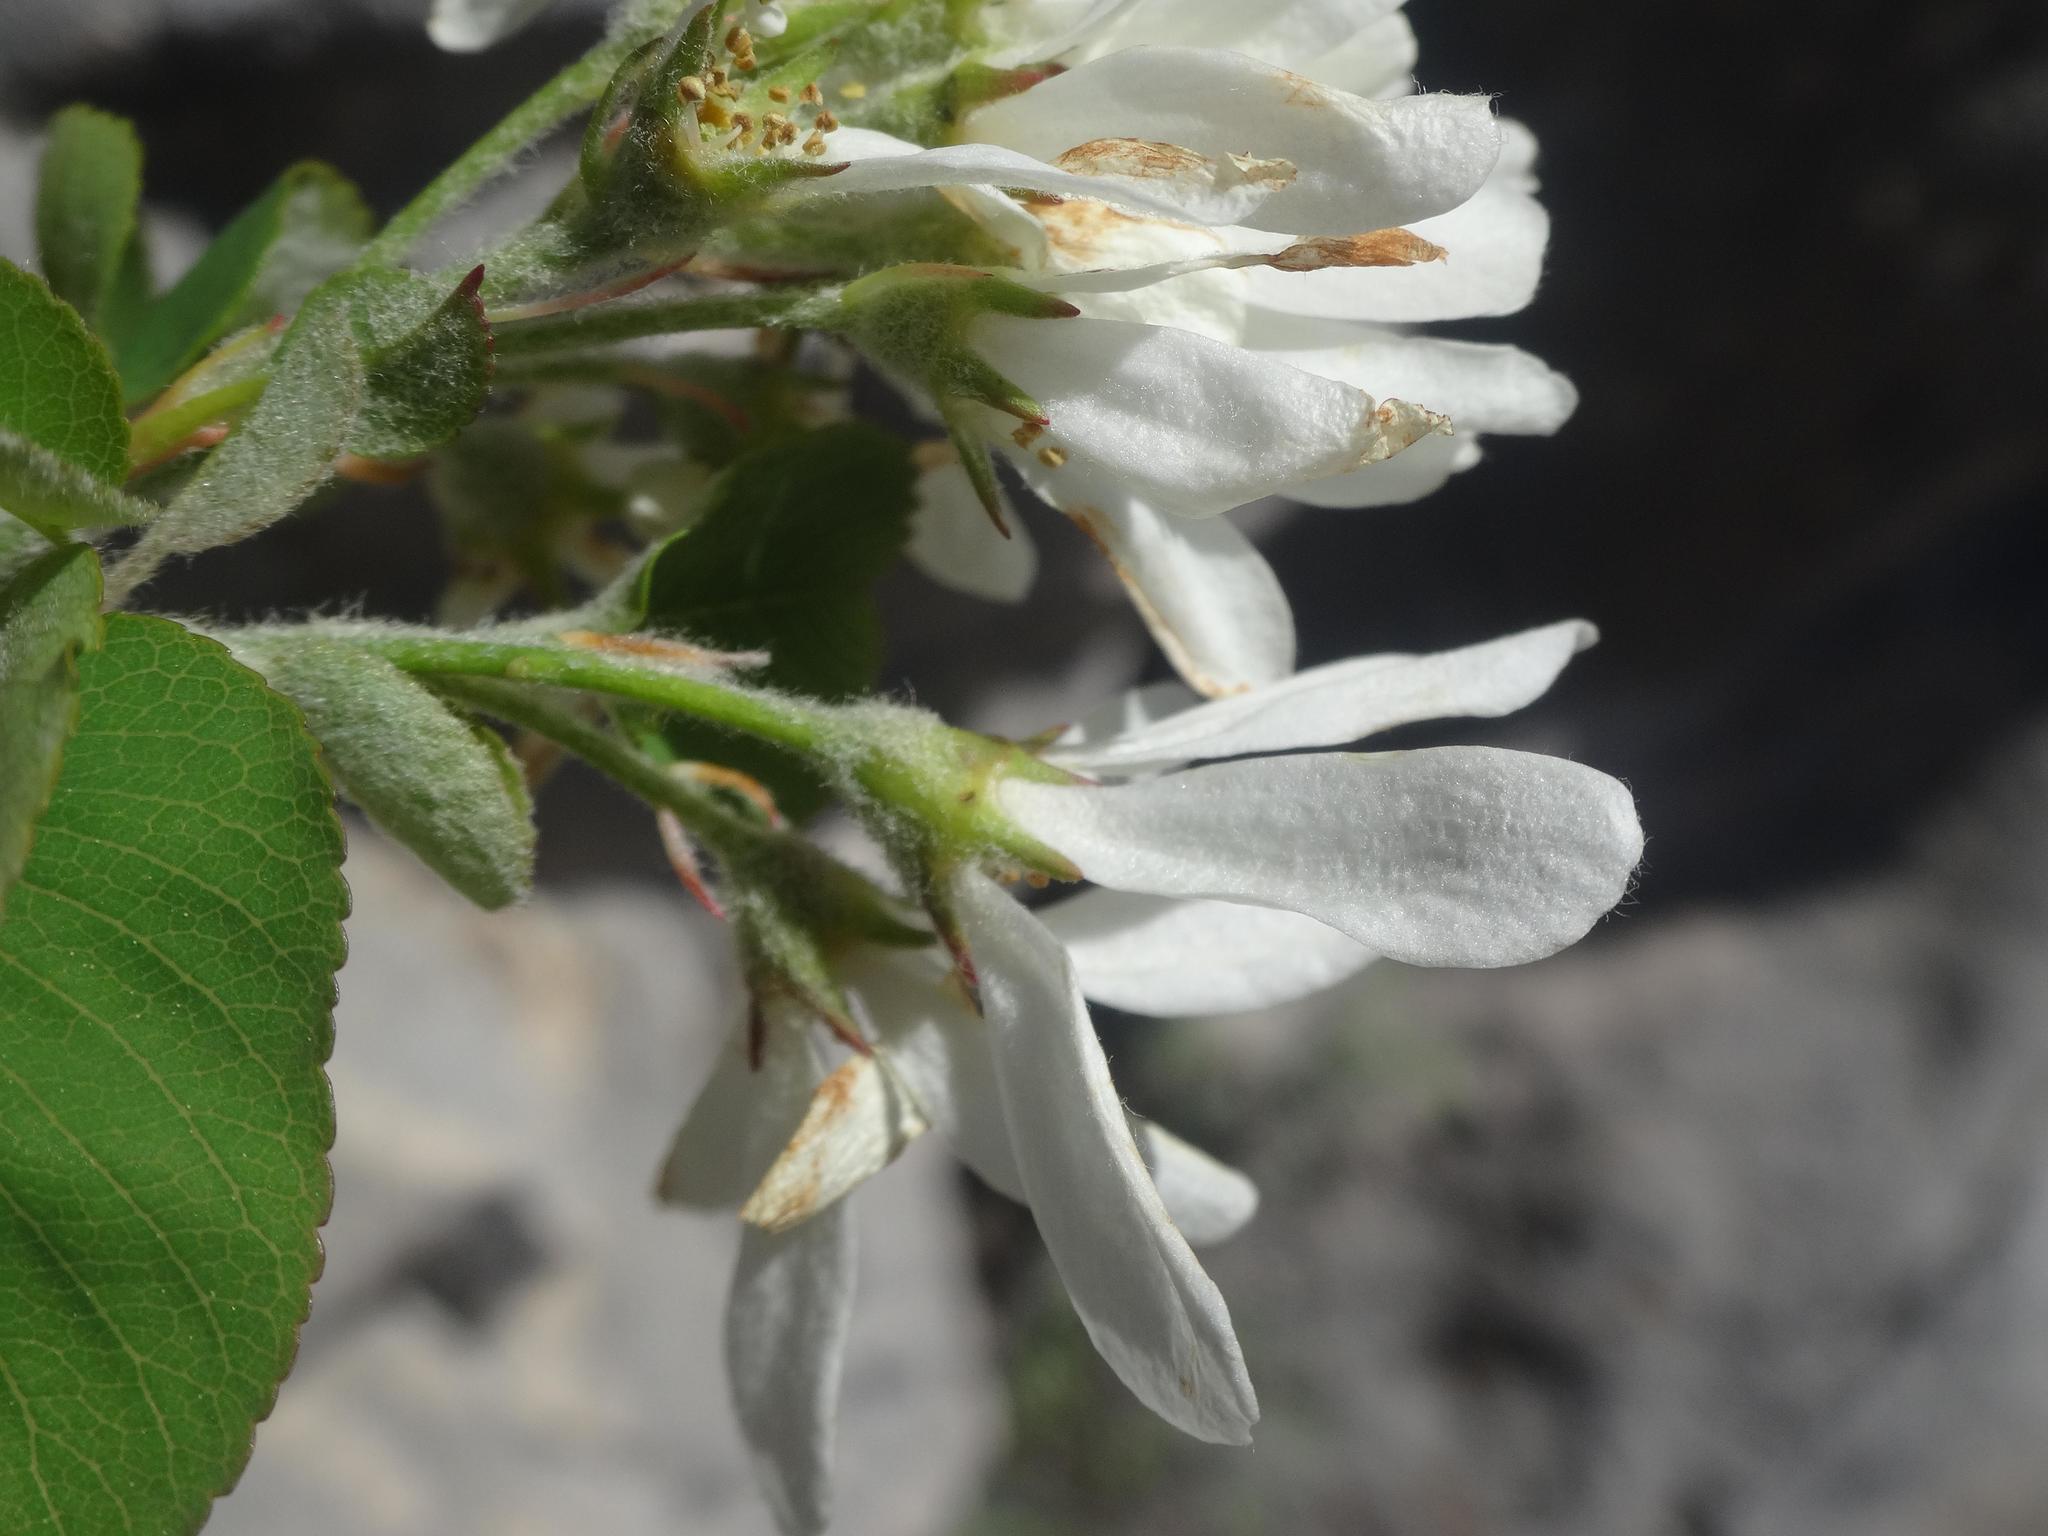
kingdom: Plantae
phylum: Tracheophyta
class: Magnoliopsida
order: Rosales
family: Rosaceae
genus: Amelanchier
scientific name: Amelanchier ovalis
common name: Serviceberry
